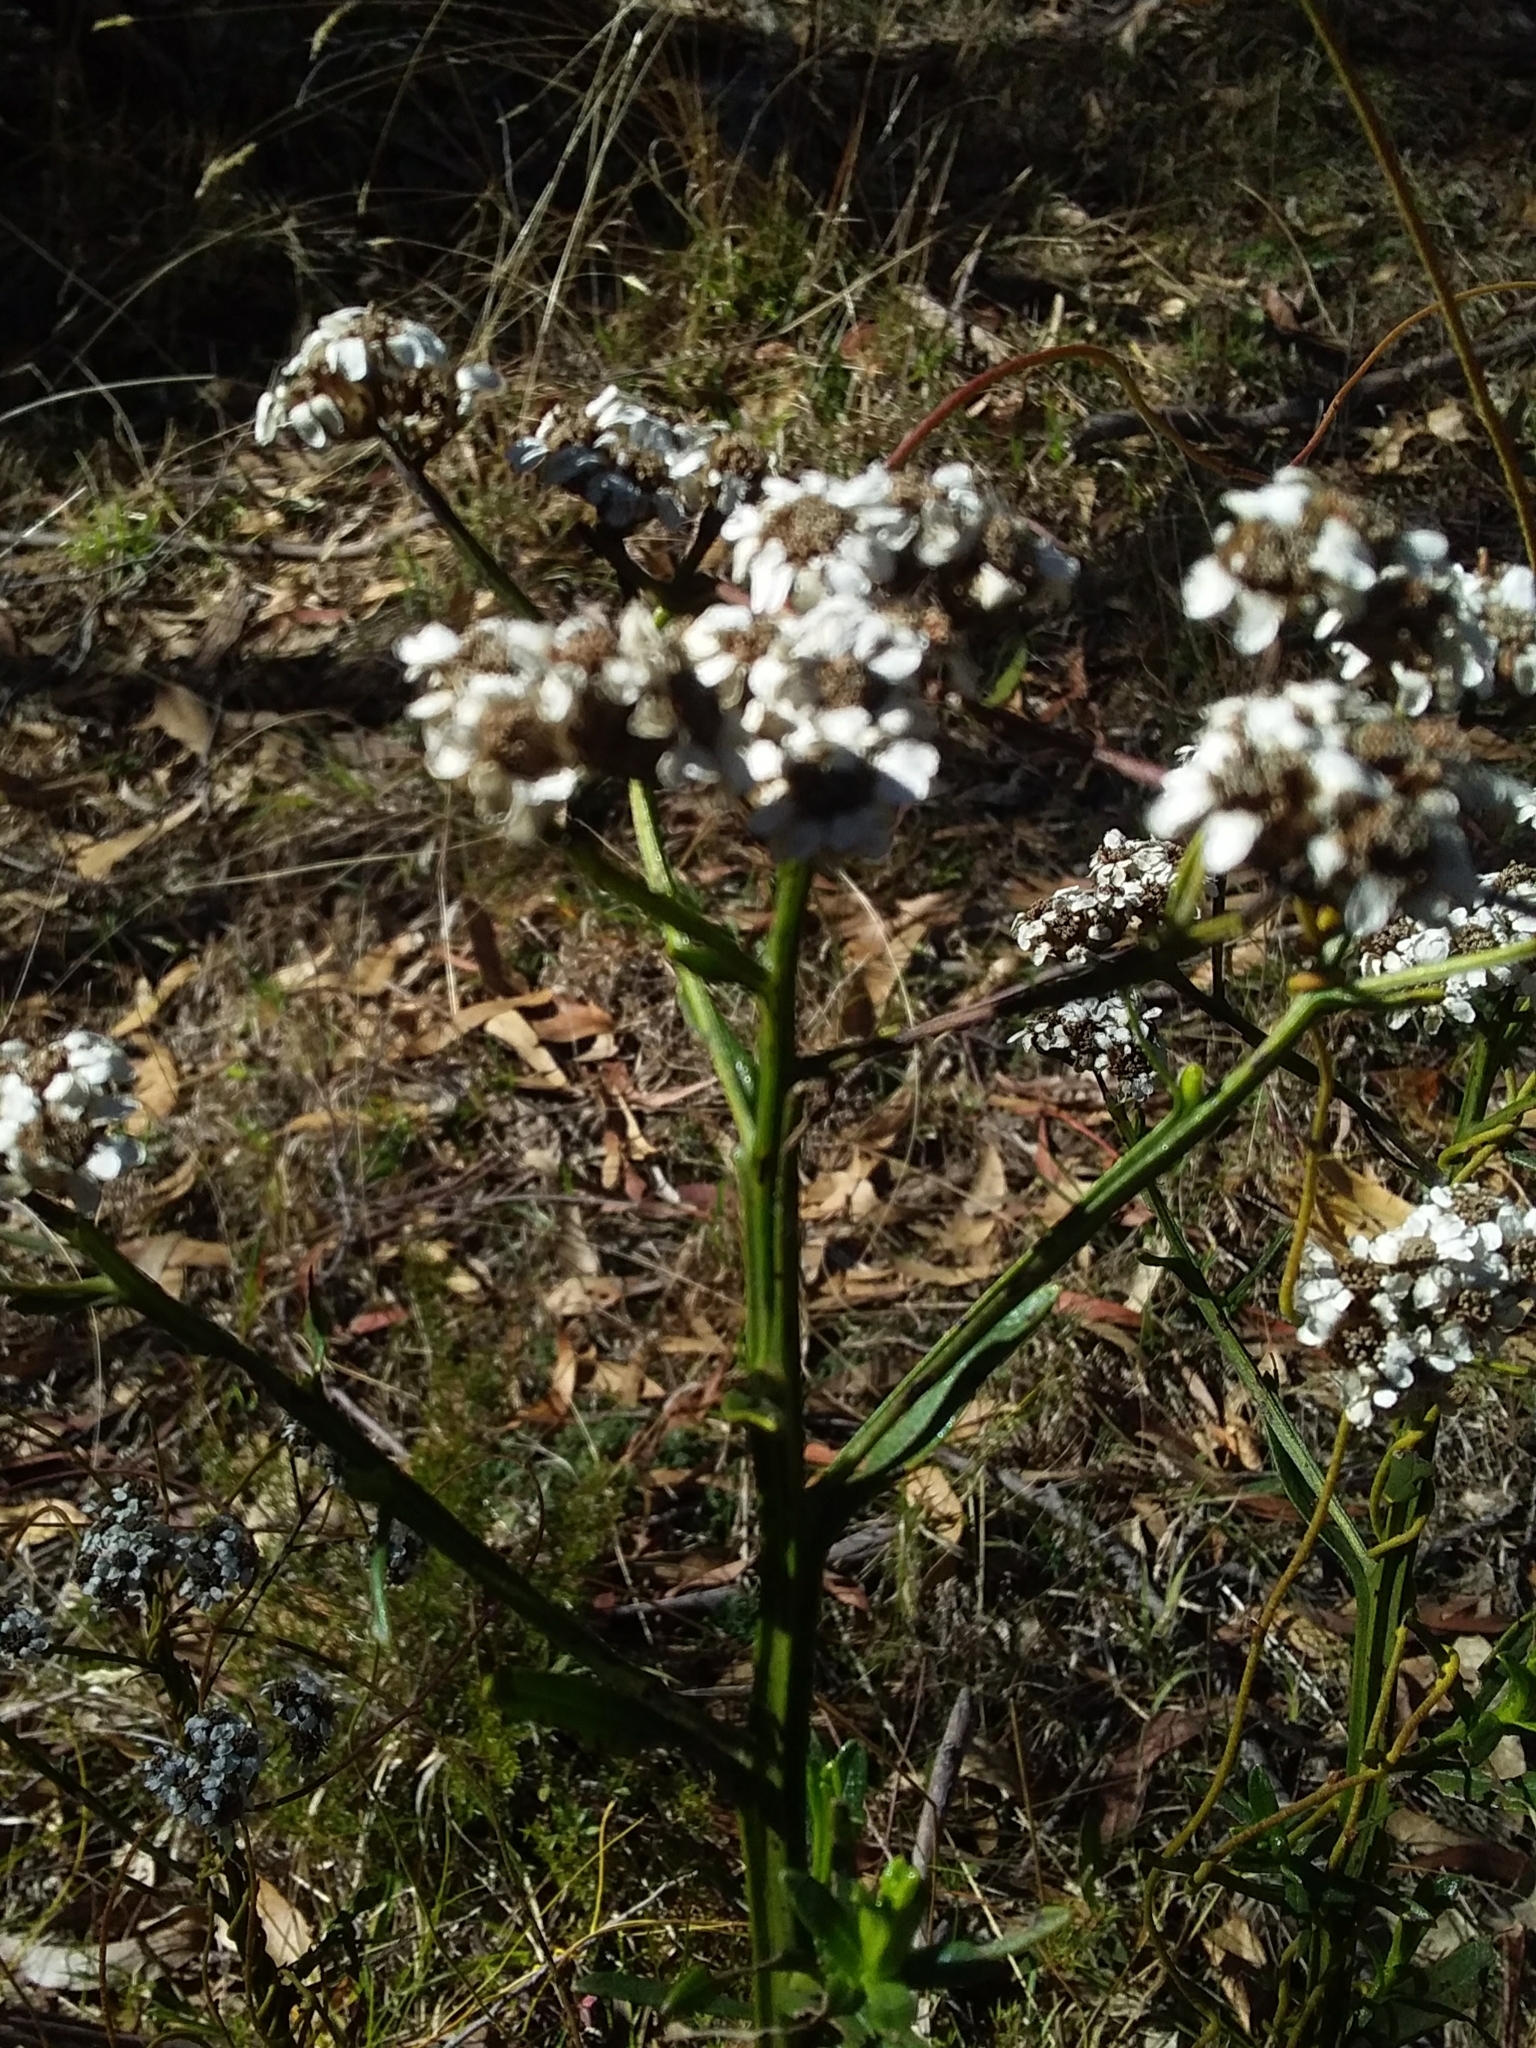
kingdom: Plantae
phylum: Tracheophyta
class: Magnoliopsida
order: Asterales
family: Asteraceae
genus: Ixodia
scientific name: Ixodia achillaeoides
